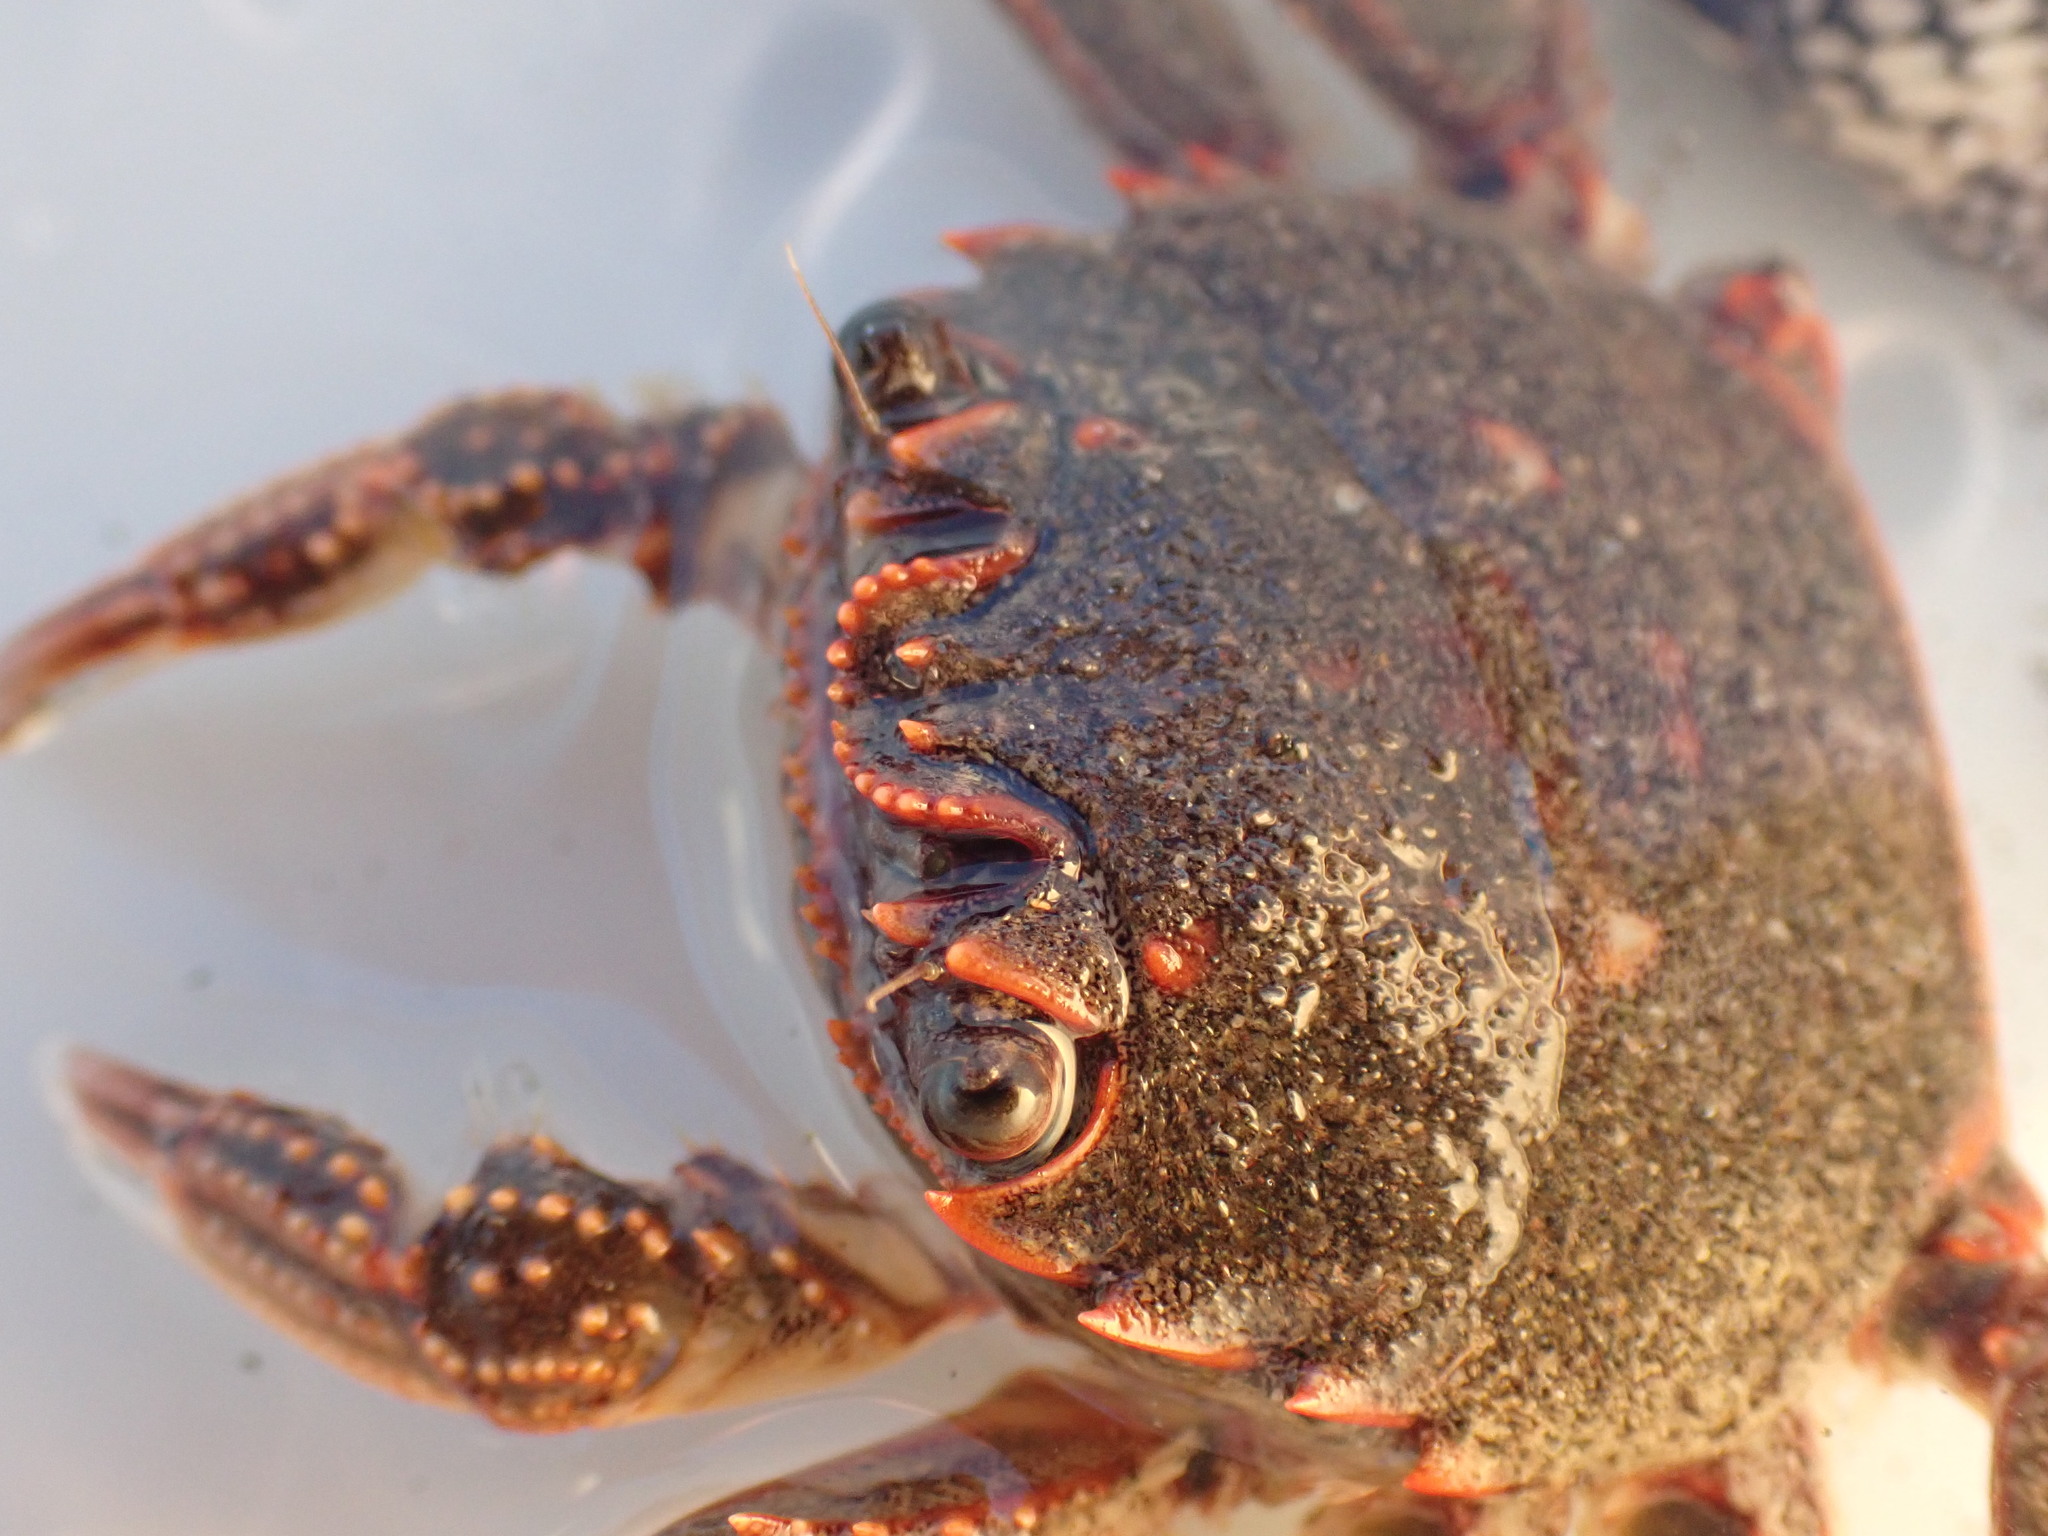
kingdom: Animalia
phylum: Arthropoda
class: Malacostraca
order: Decapoda
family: Plagusiidae
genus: Guinusia
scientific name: Guinusia chabrus
